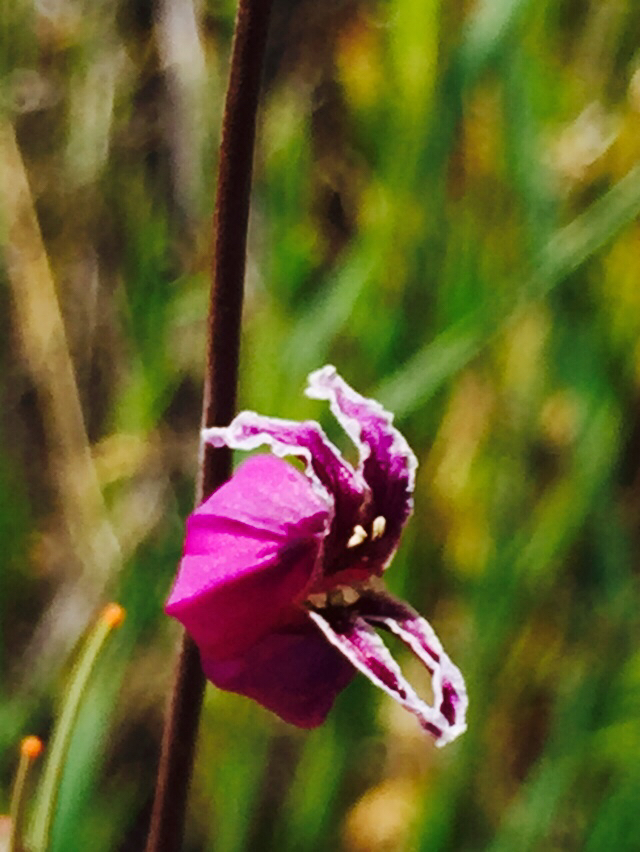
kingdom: Plantae
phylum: Tracheophyta
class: Magnoliopsida
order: Brassicales
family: Brassicaceae
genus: Streptanthus
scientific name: Streptanthus glandulosus
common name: Jewel-flower
